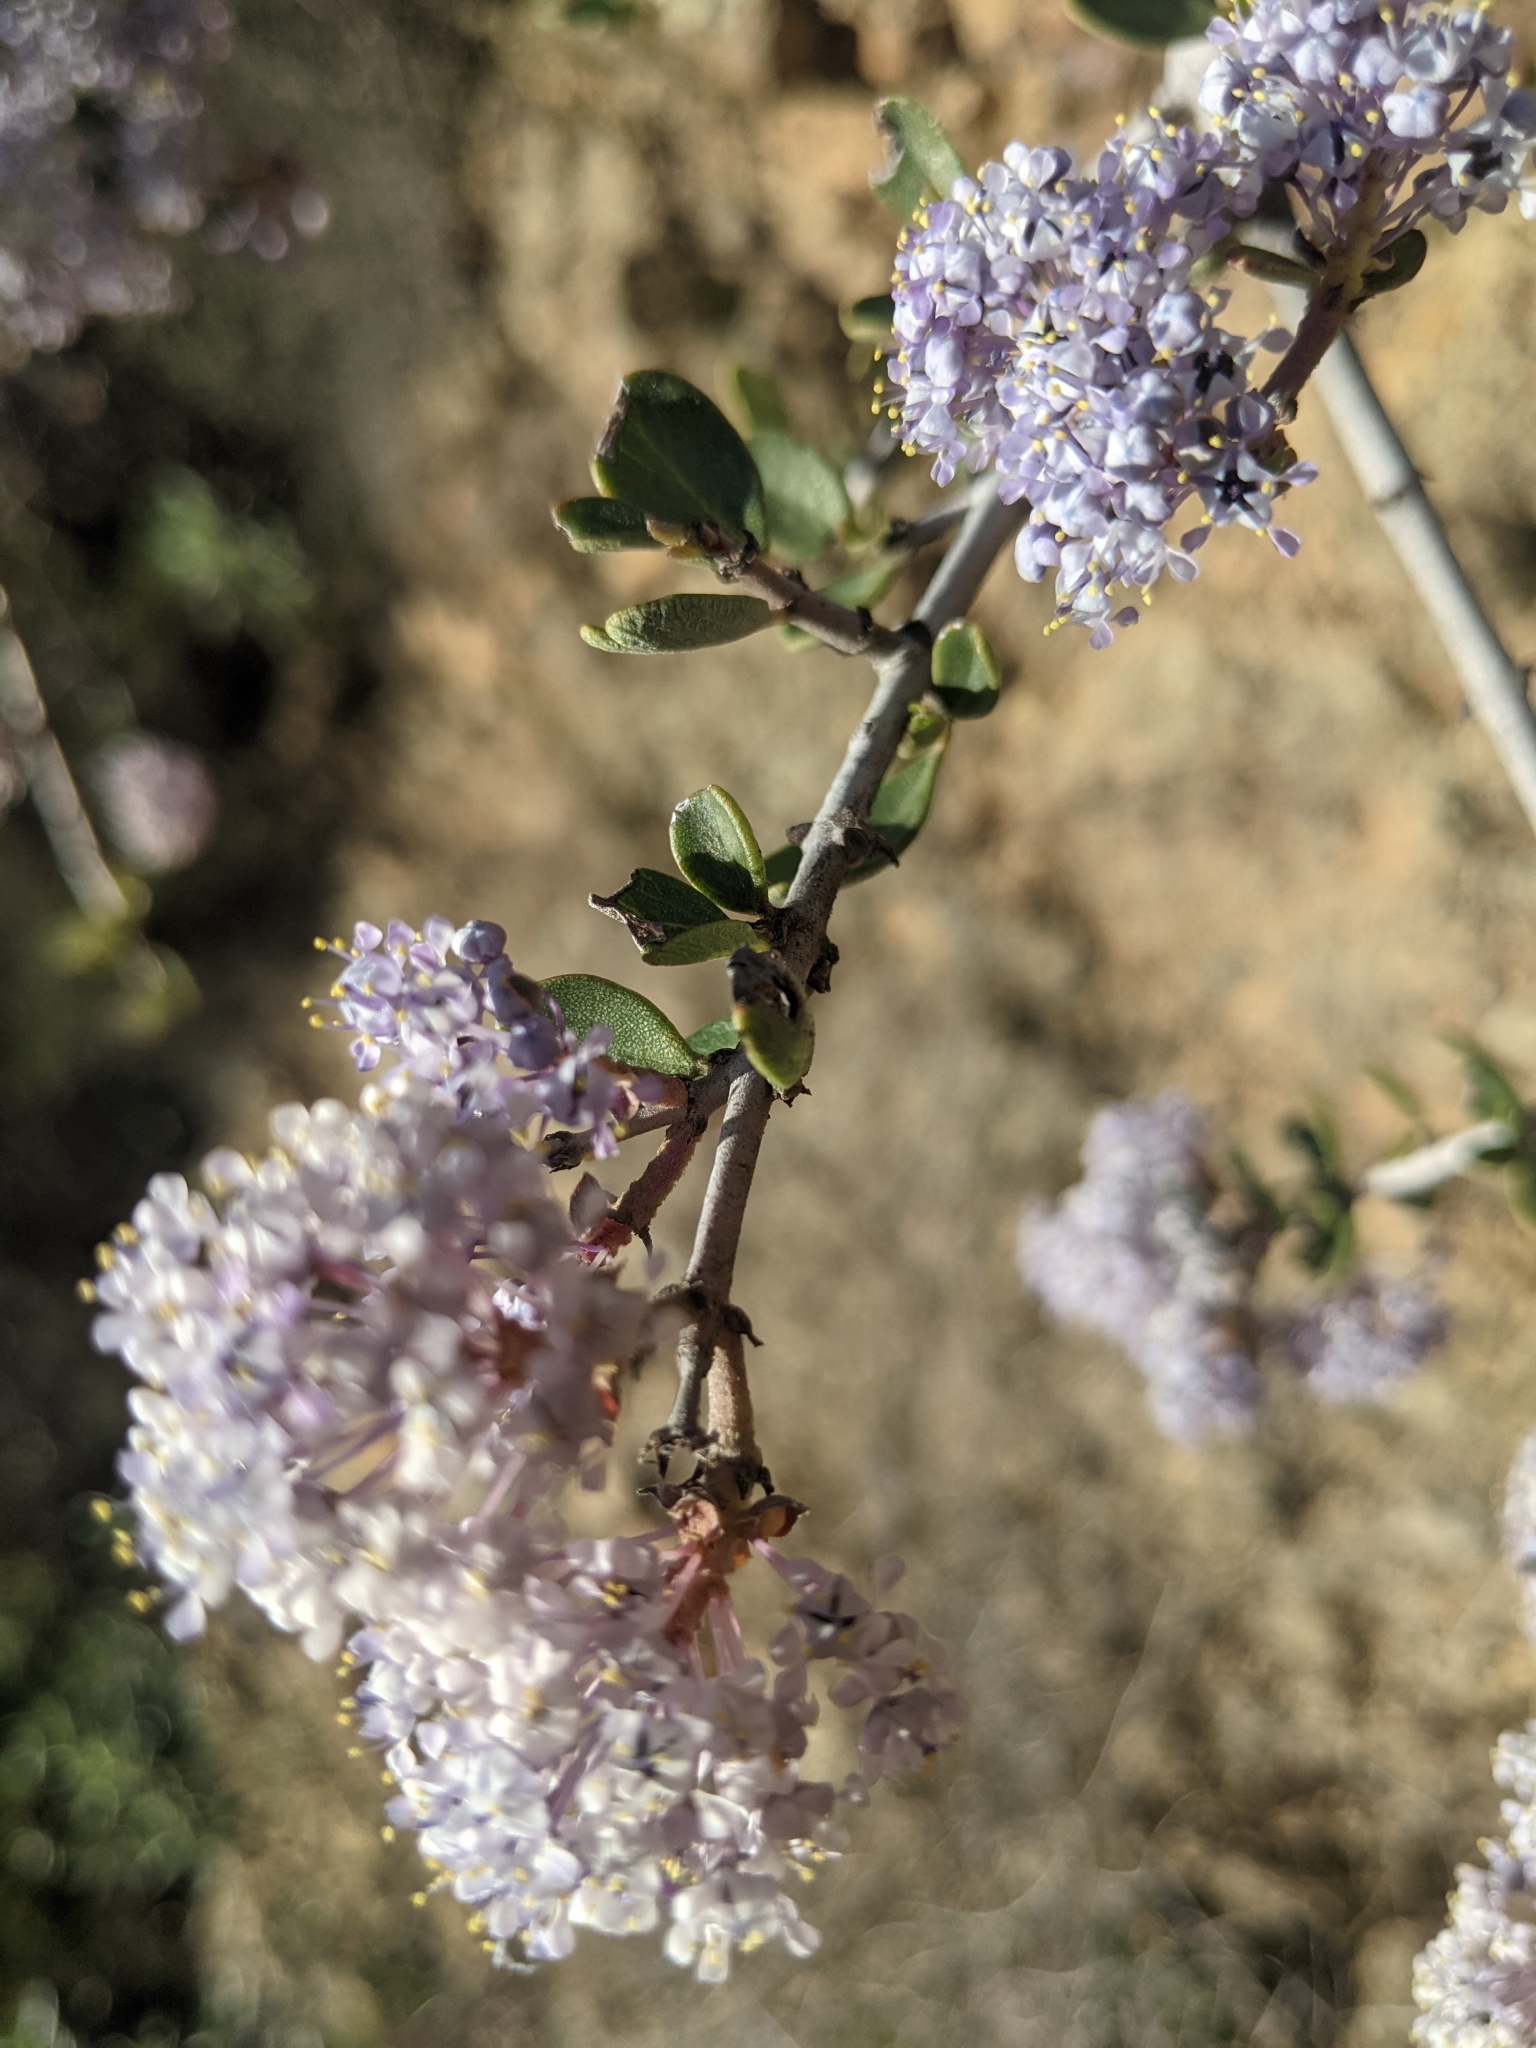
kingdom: Plantae
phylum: Tracheophyta
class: Magnoliopsida
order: Rosales
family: Rhamnaceae
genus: Ceanothus
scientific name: Ceanothus cuneatus
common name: Cuneate ceanothus
